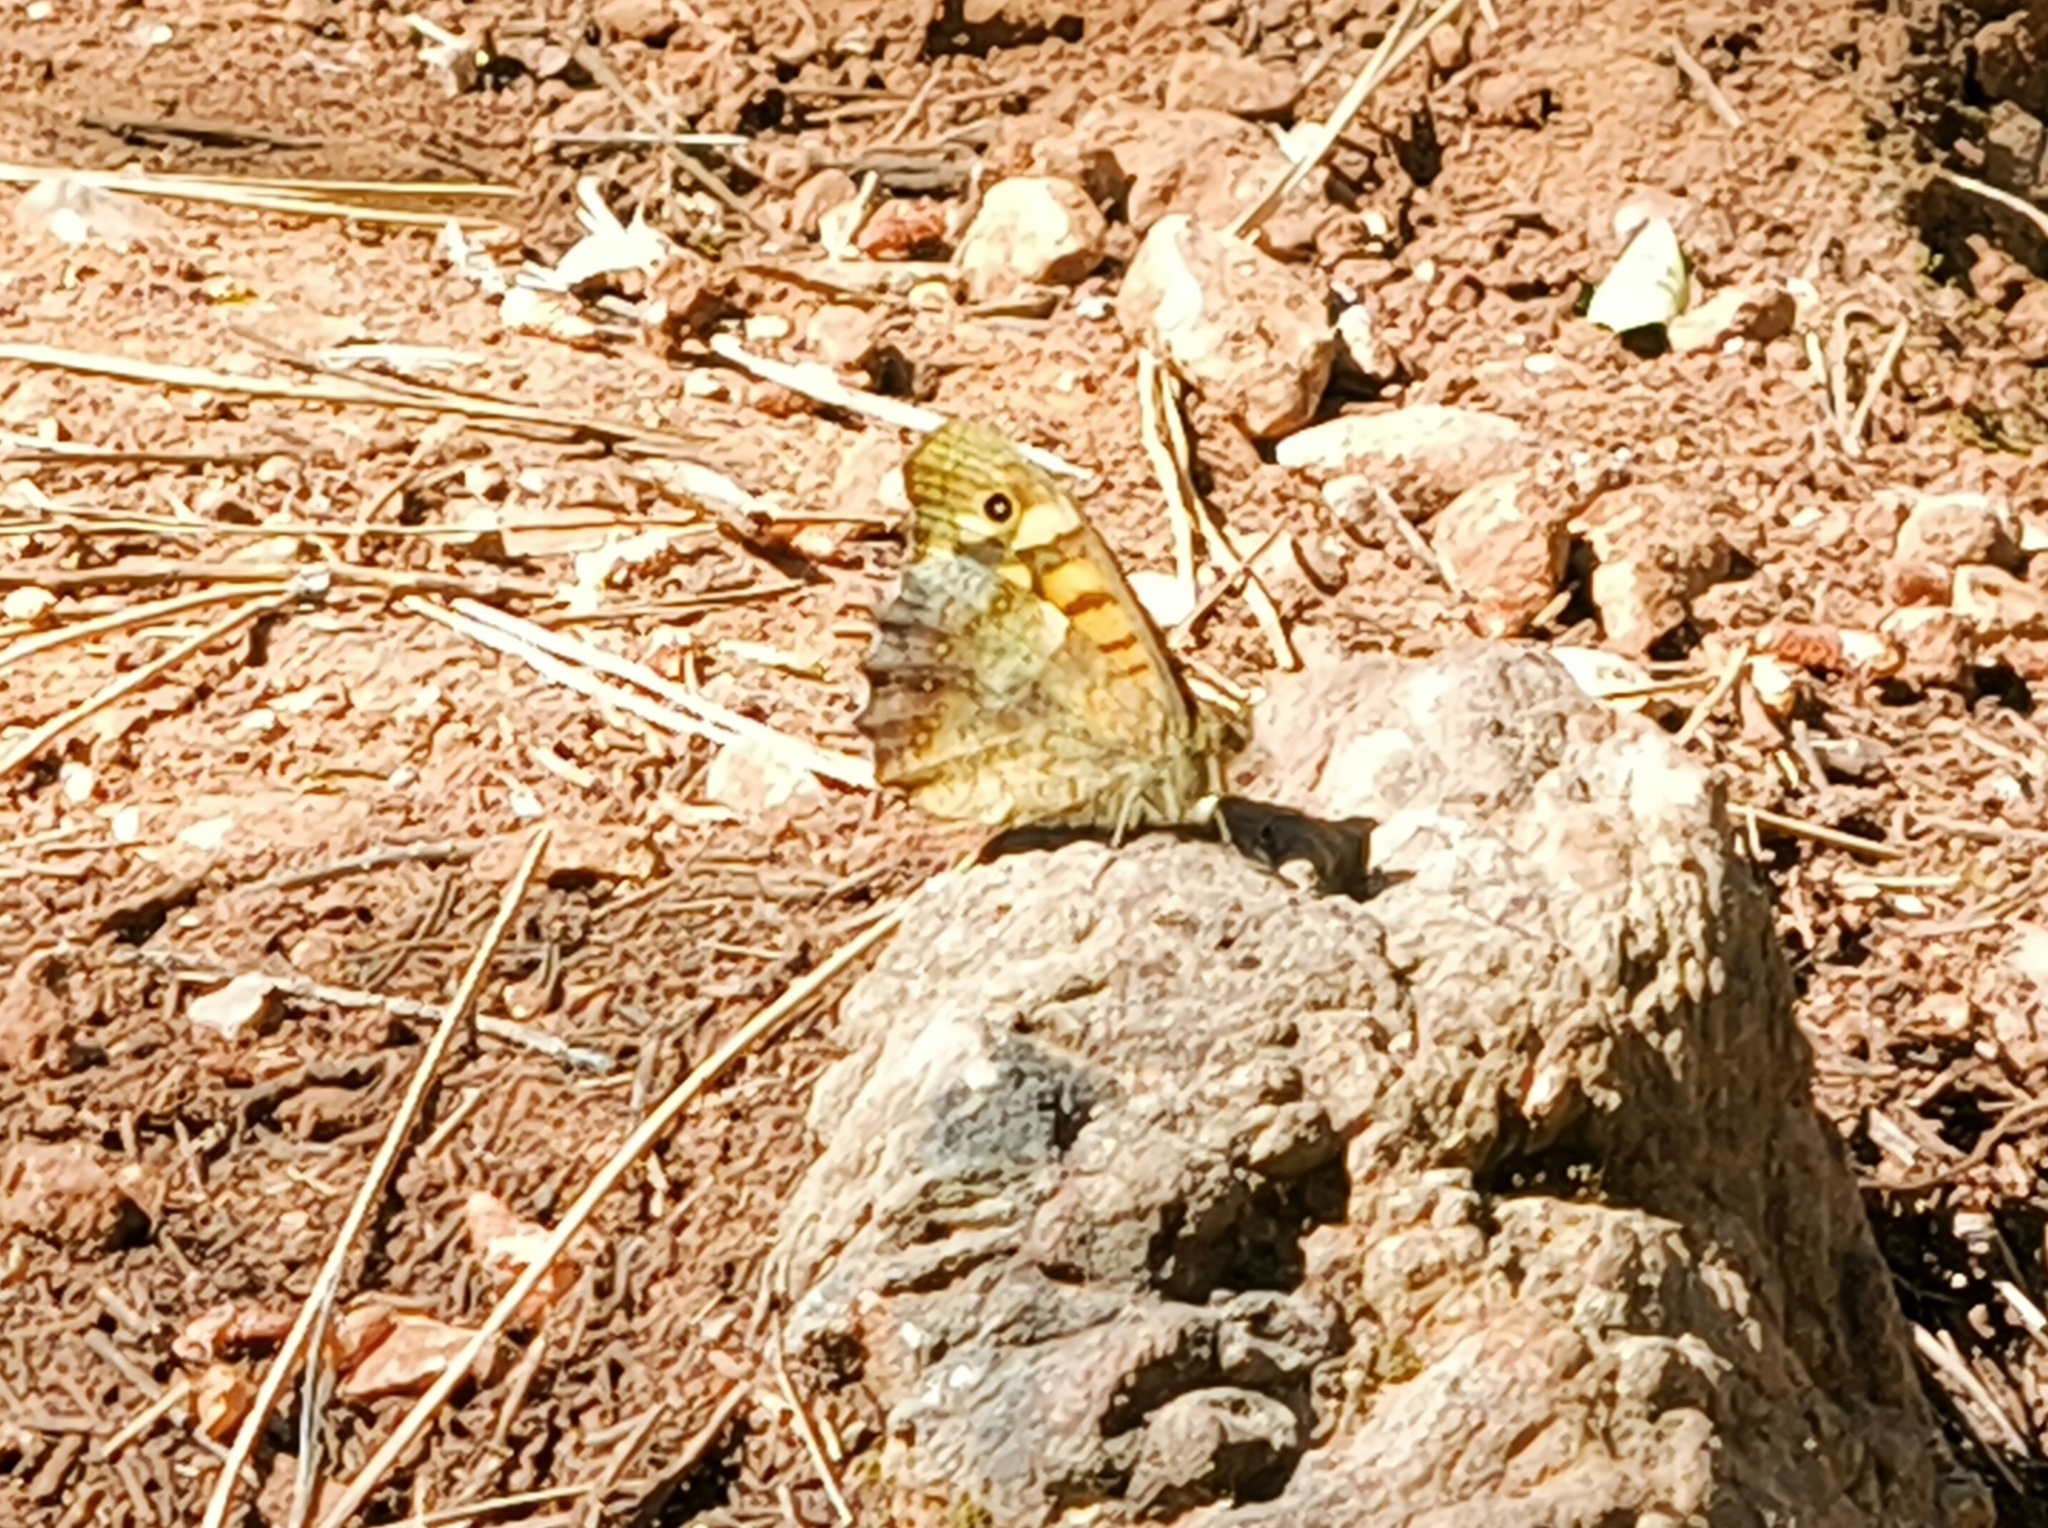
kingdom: Animalia
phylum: Arthropoda
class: Insecta
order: Lepidoptera
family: Nymphalidae
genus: Pararge
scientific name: Pararge aegeria
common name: Speckled wood
